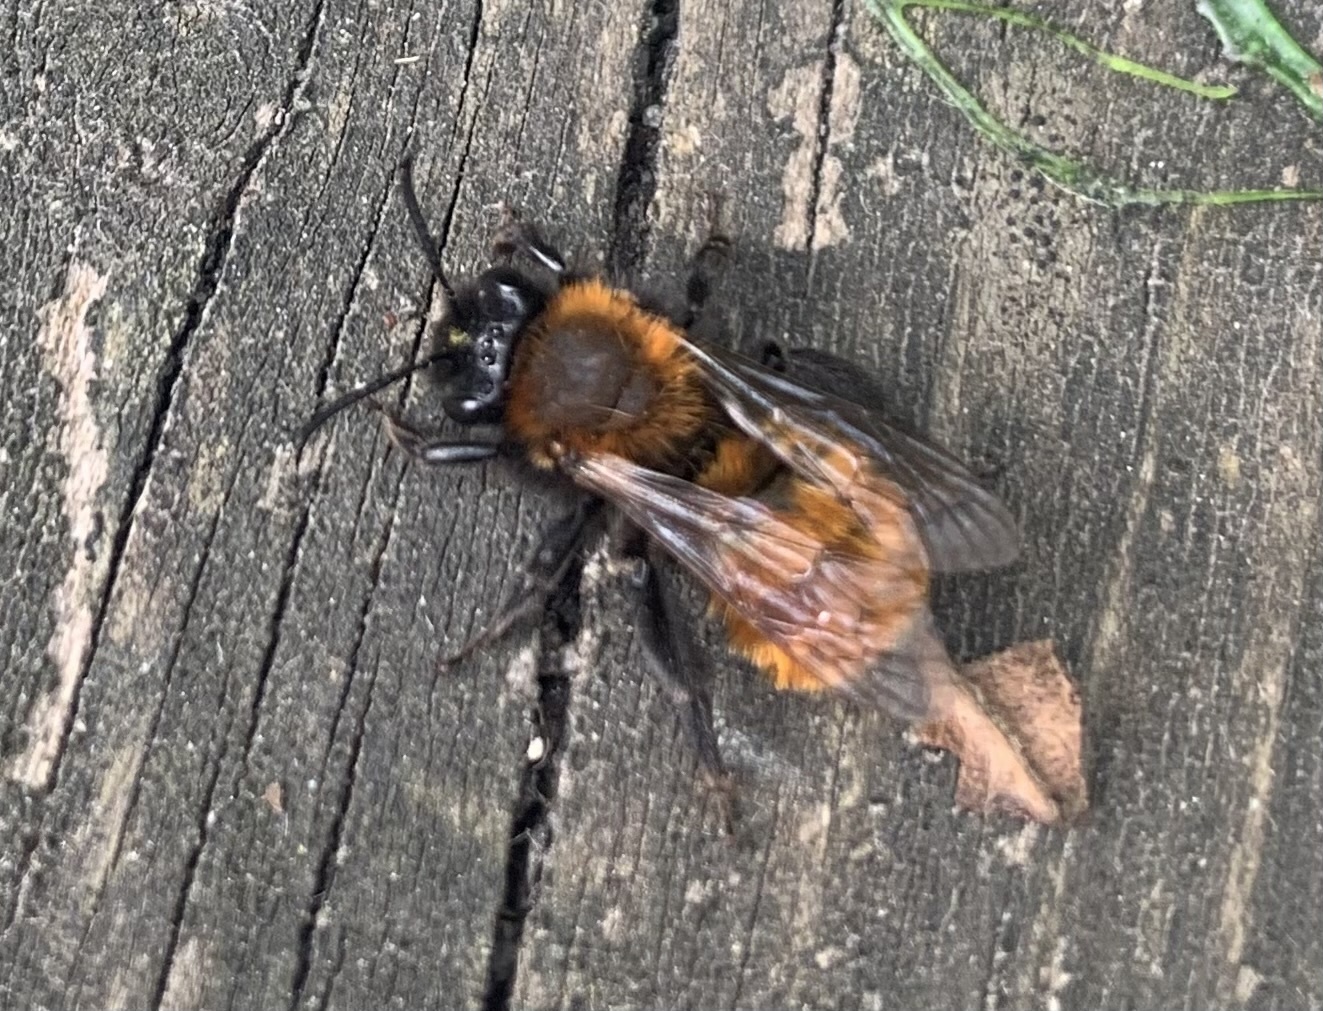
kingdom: Animalia
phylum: Arthropoda
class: Insecta
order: Hymenoptera
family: Andrenidae
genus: Andrena
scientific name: Andrena fulva
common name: Tawny mining bee
